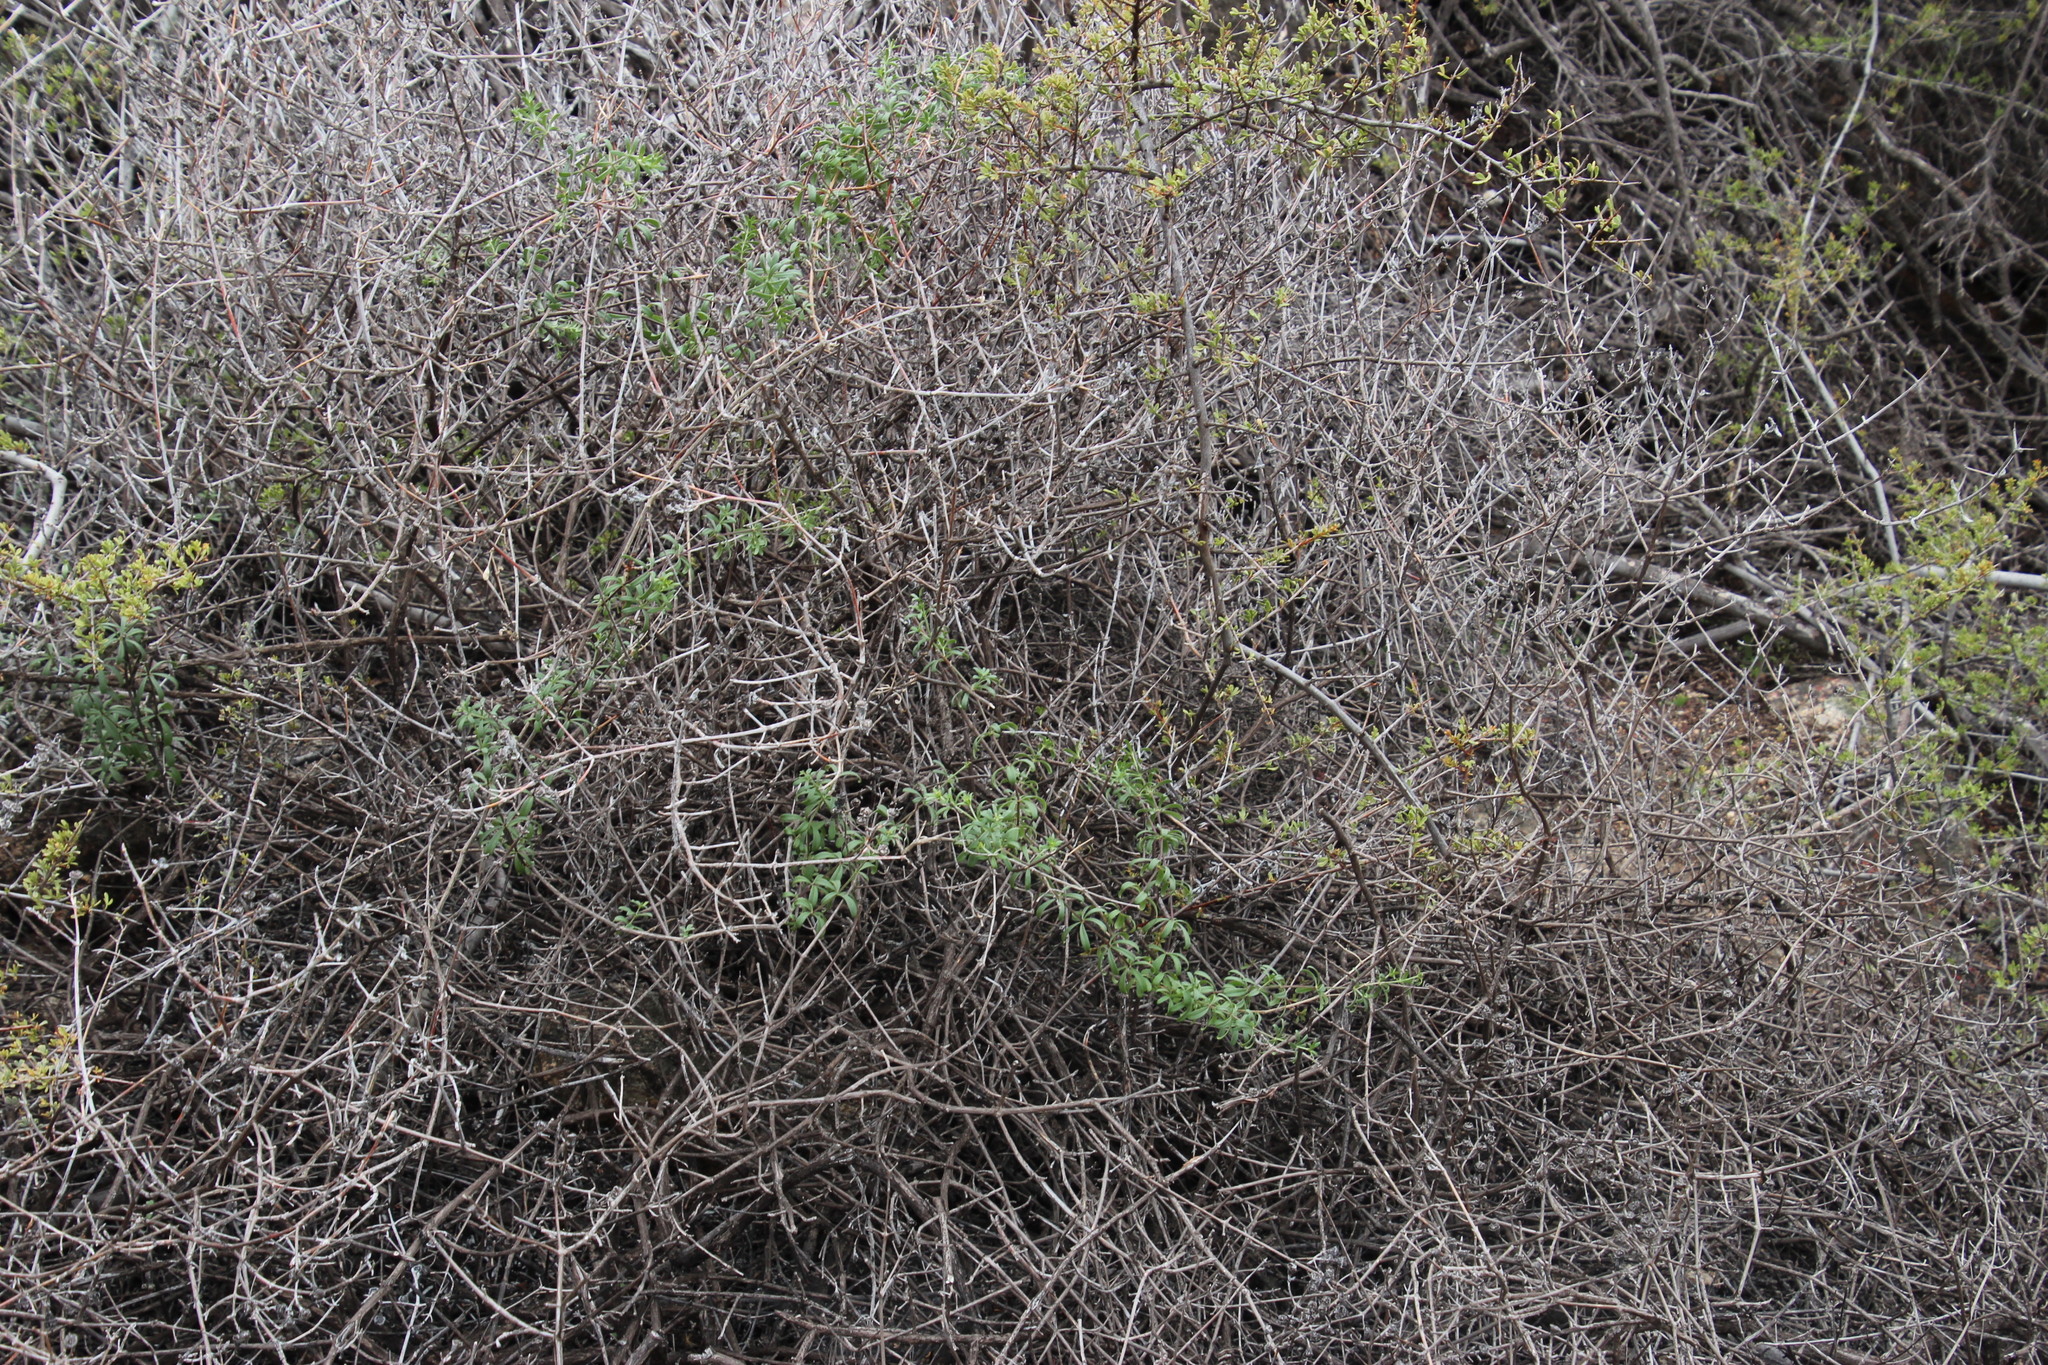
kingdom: Plantae
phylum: Tracheophyta
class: Magnoliopsida
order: Gentianales
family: Rubiaceae
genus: Galium
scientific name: Galium capense
